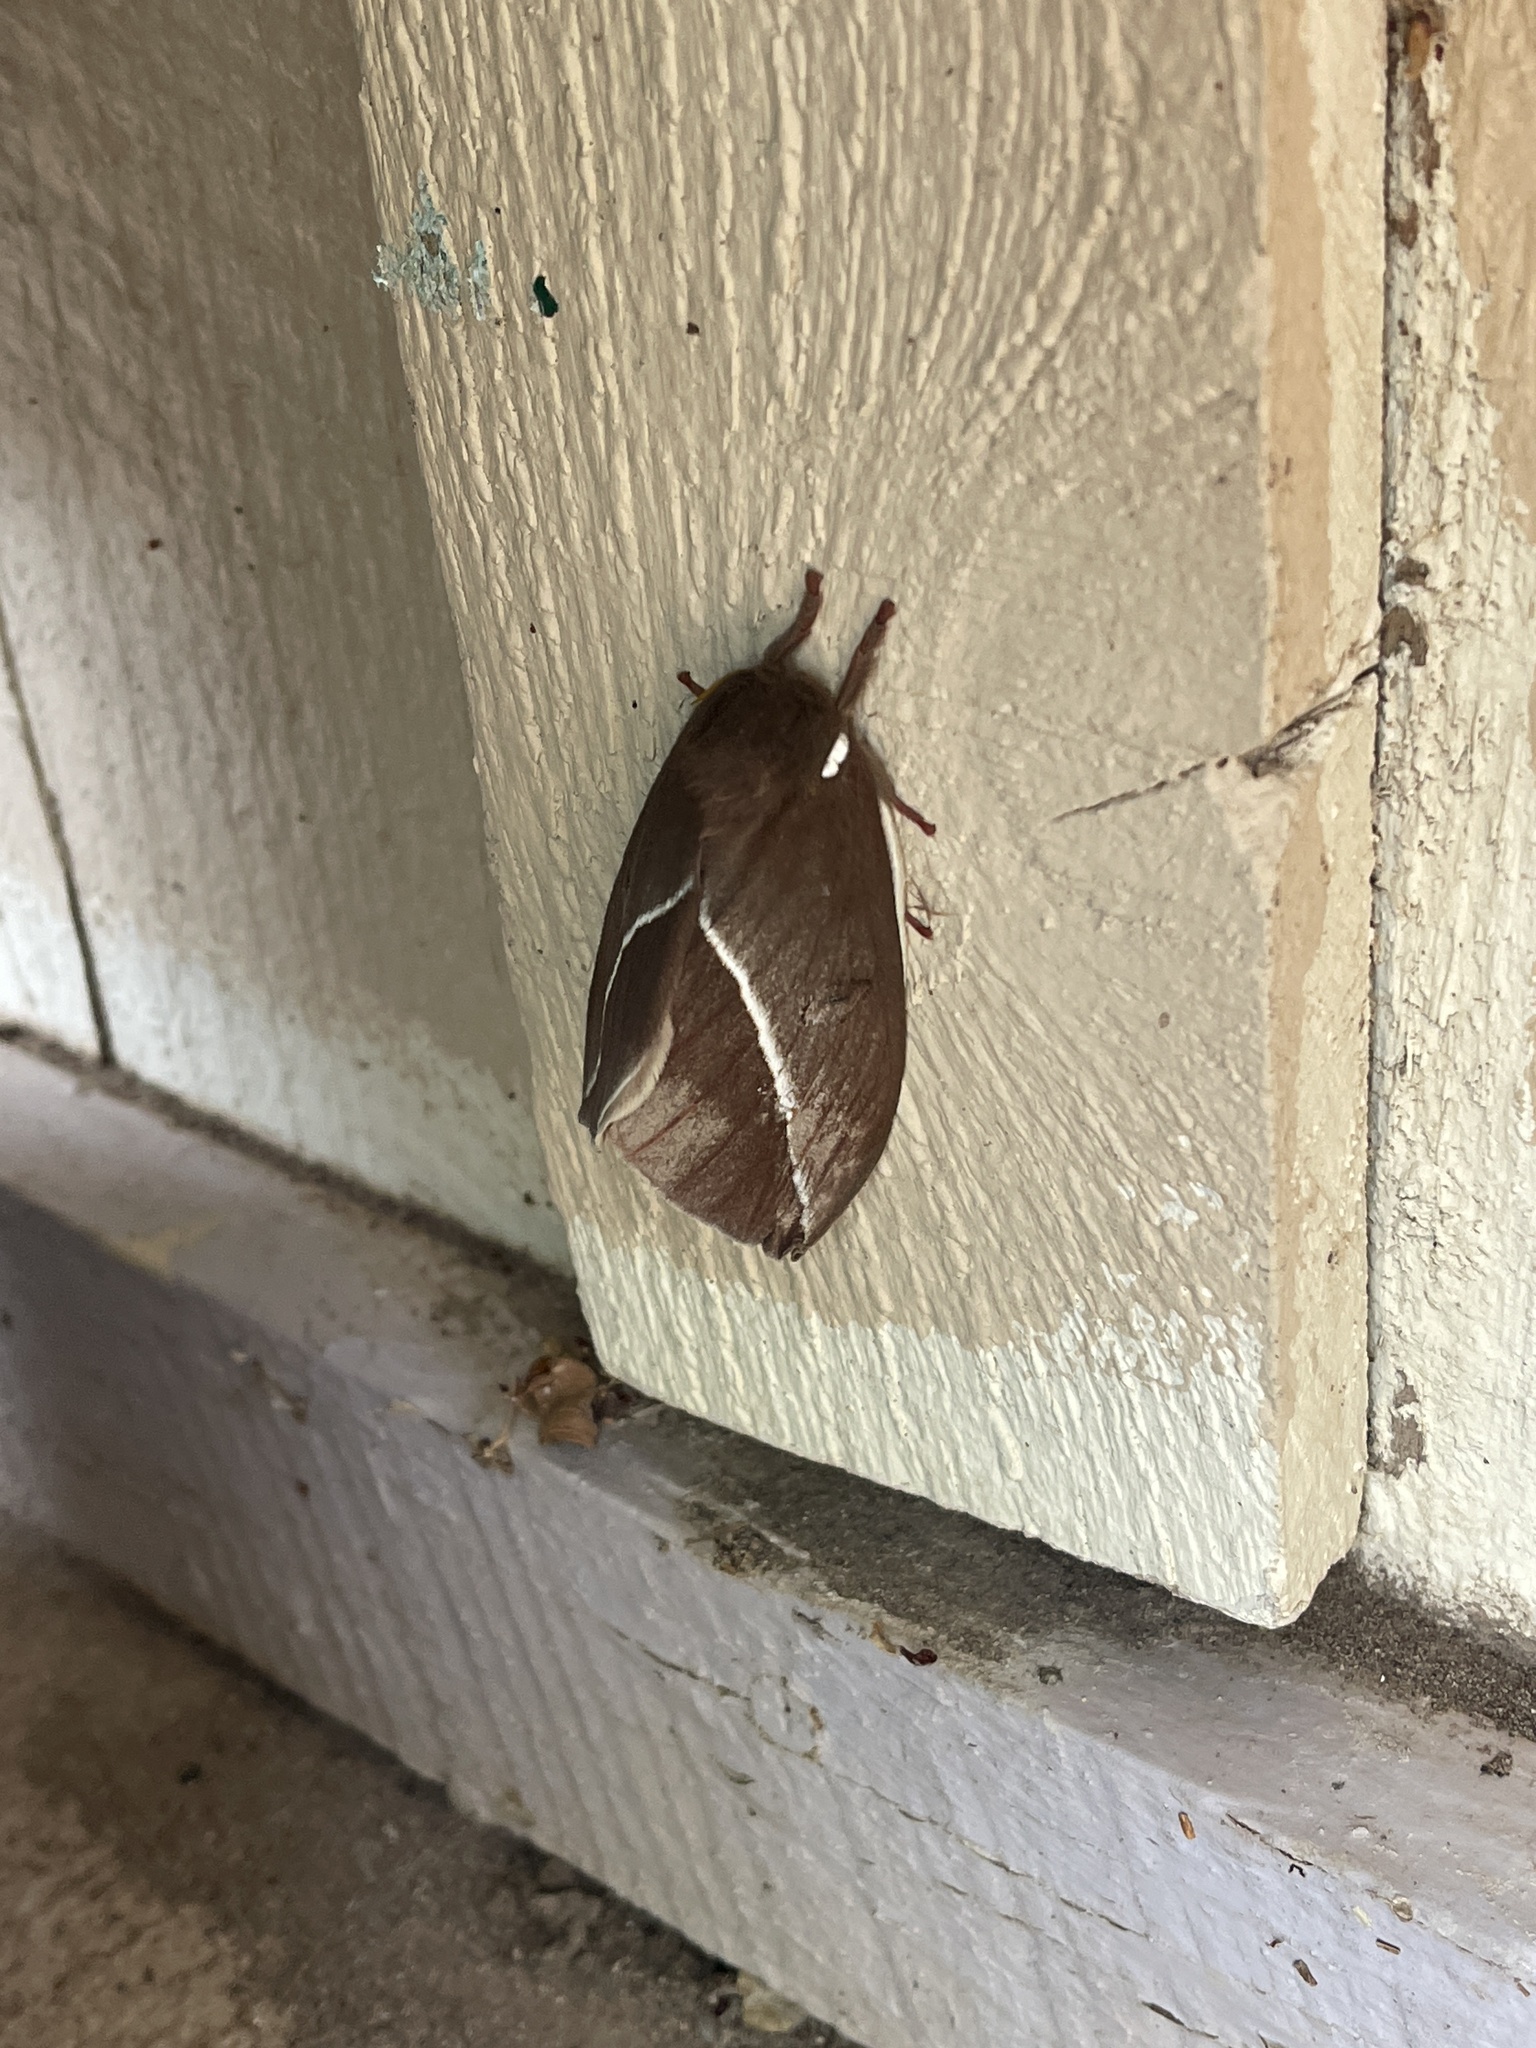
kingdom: Animalia
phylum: Arthropoda
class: Insecta
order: Lepidoptera
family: Saturniidae
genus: Automeris
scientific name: Automeris zephyria
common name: Zephyr eyed silkmoth
